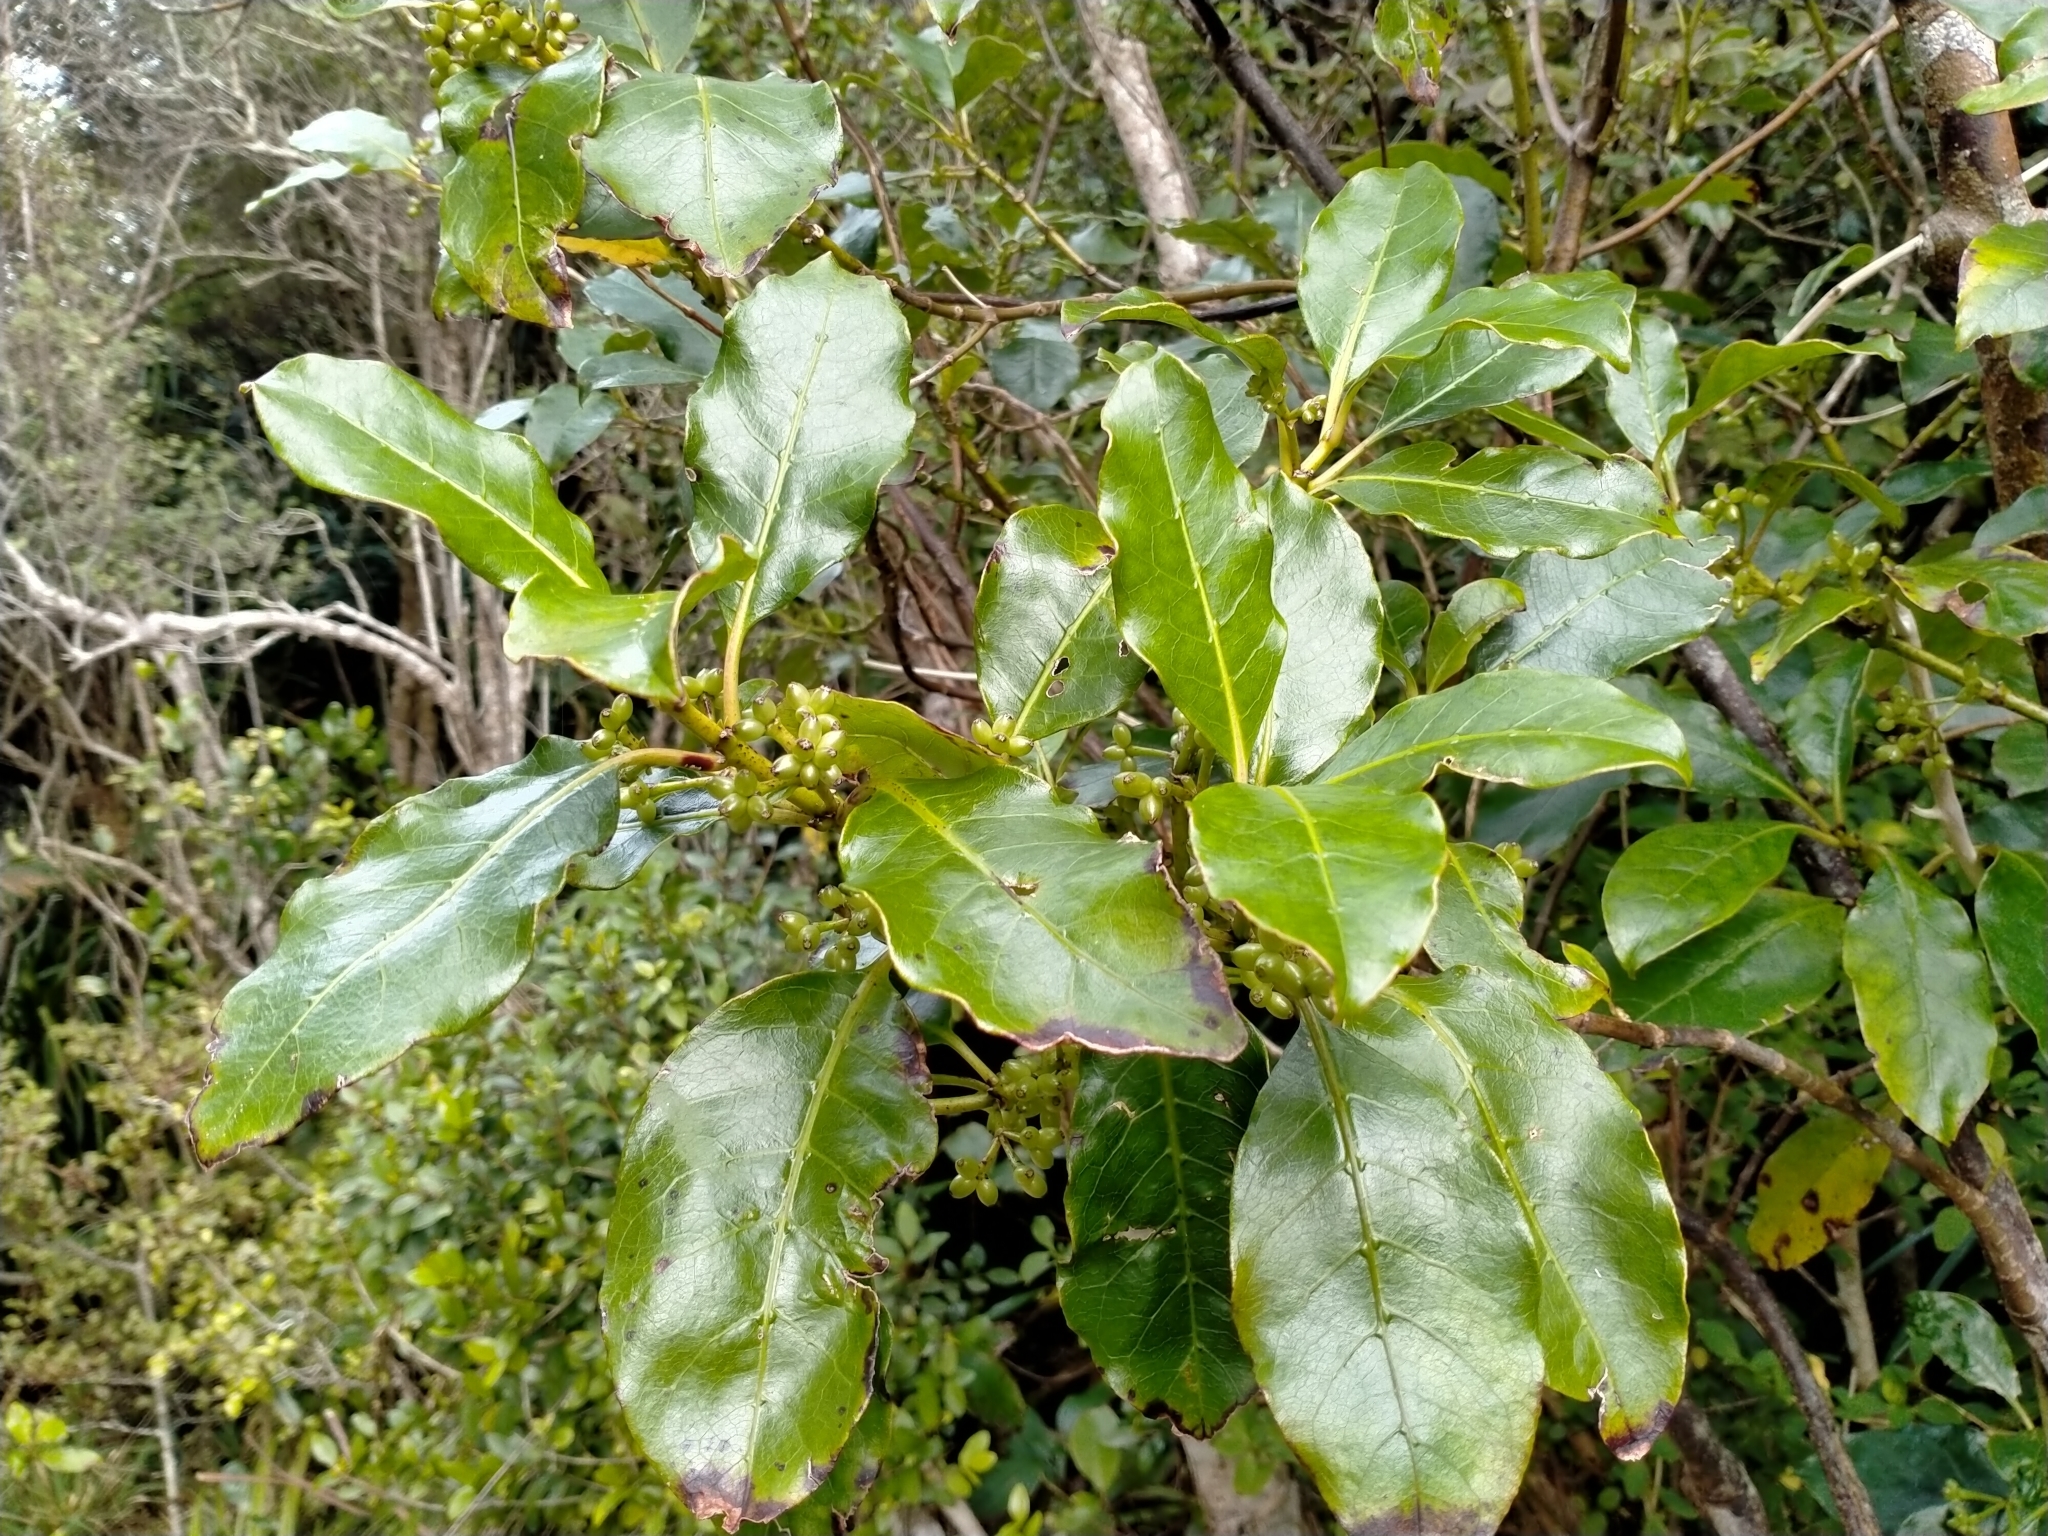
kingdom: Plantae
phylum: Tracheophyta
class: Magnoliopsida
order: Gentianales
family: Rubiaceae
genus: Coprosma
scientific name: Coprosma autumnalis
